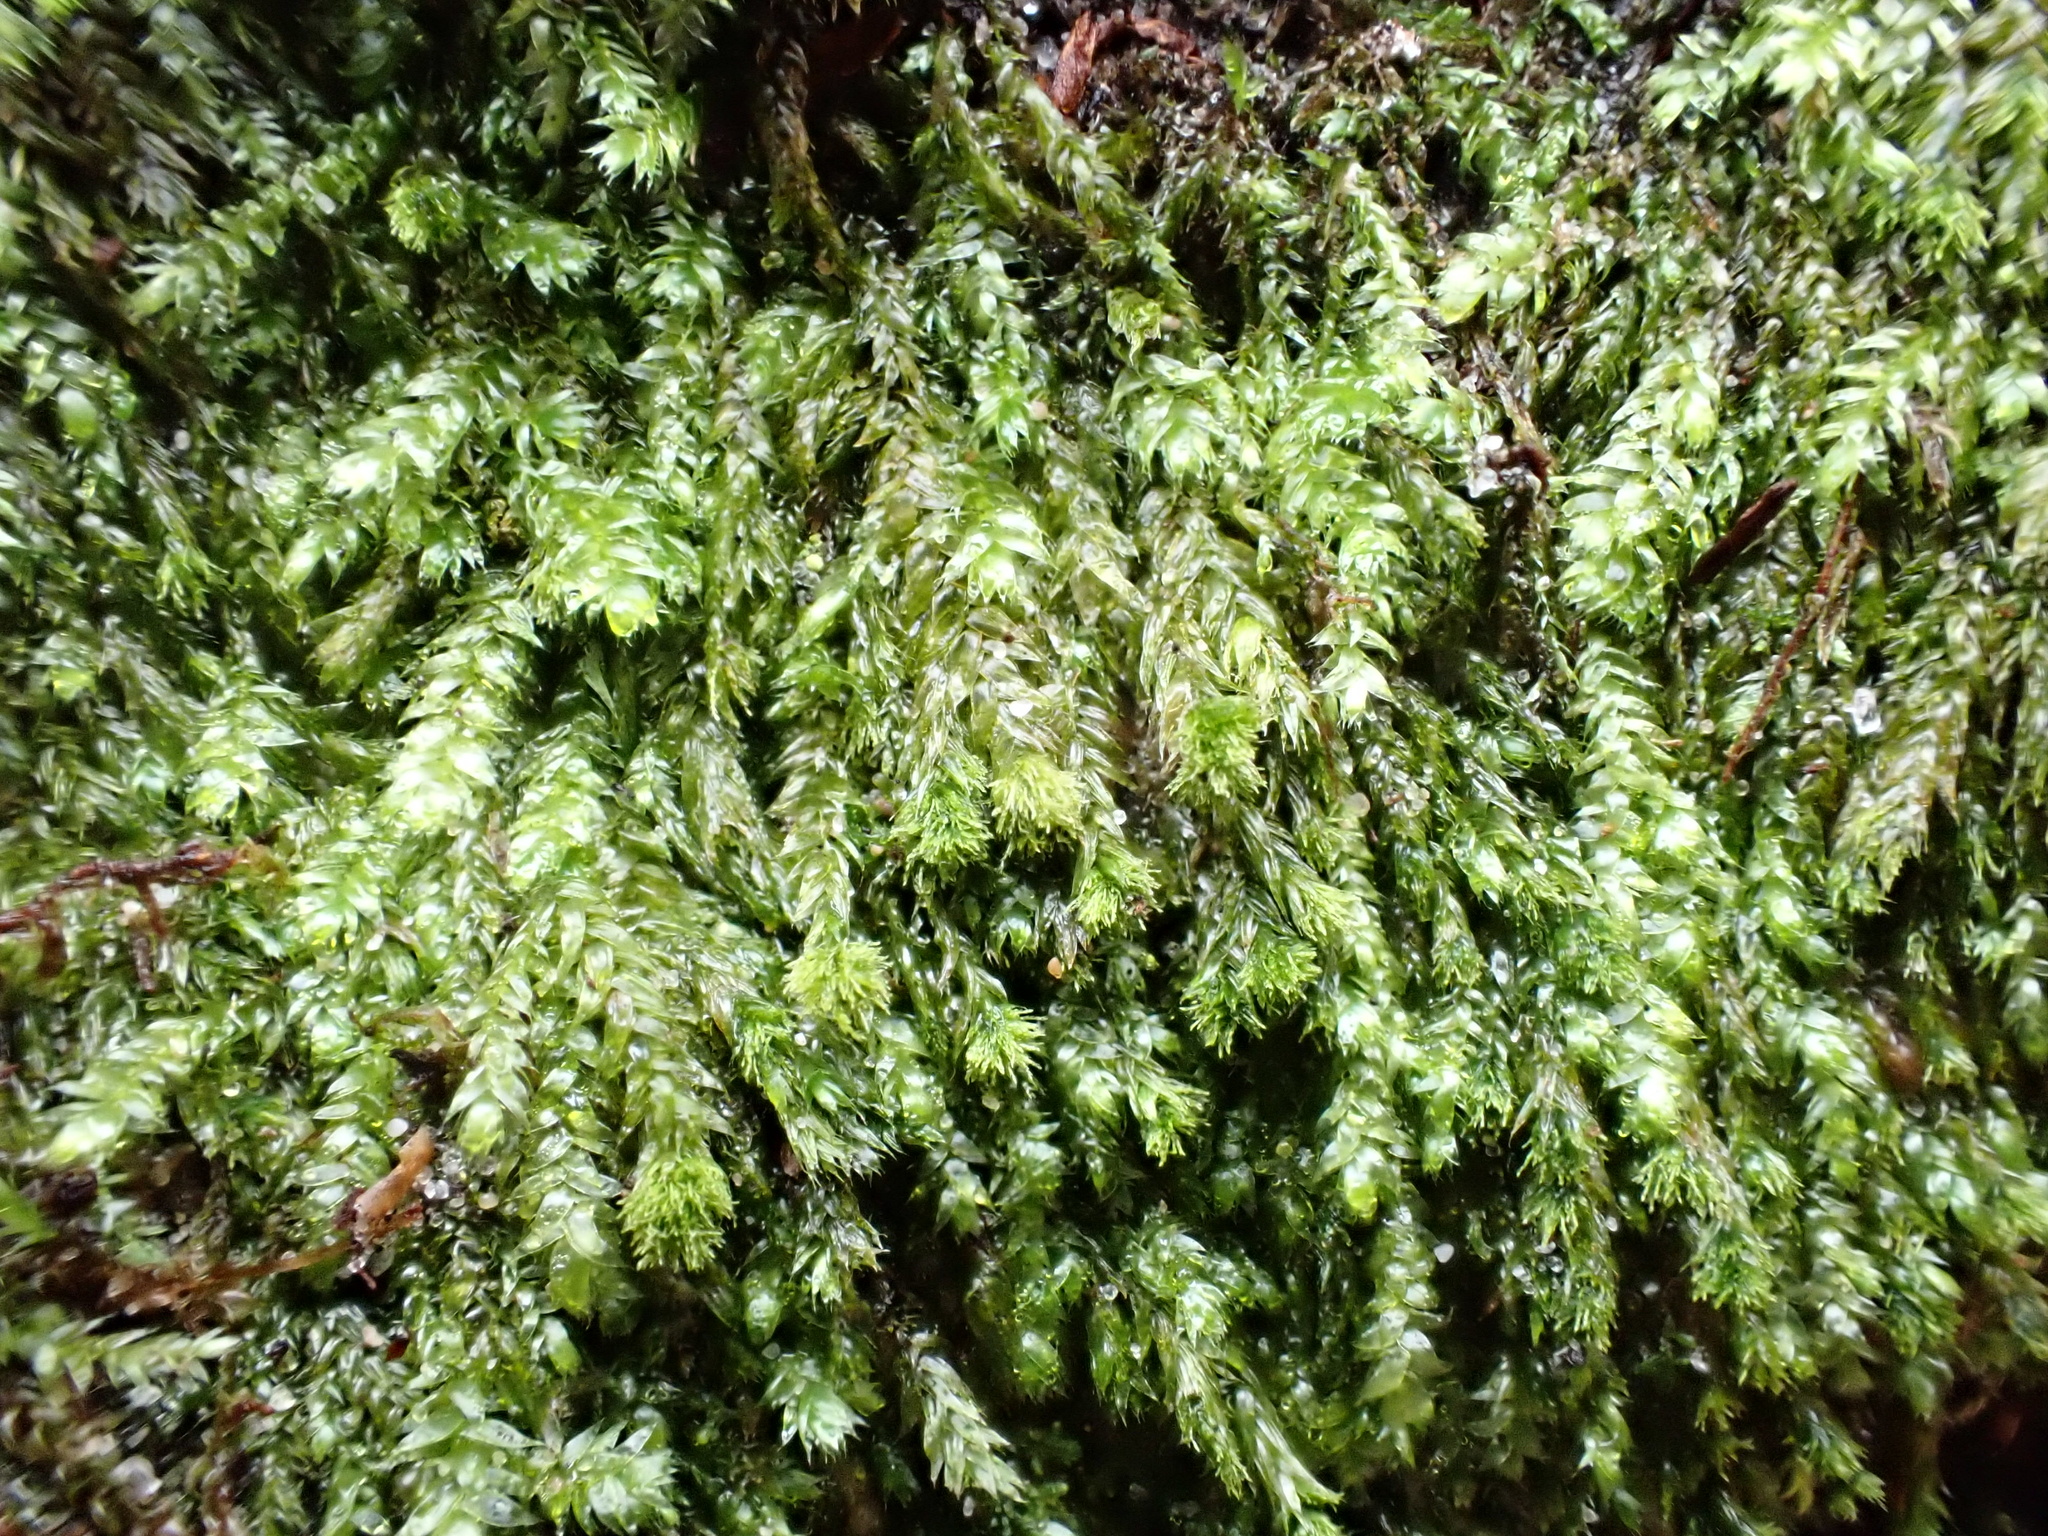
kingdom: Plantae
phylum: Bryophyta
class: Bryopsida
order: Hypnales
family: Plagiotheciaceae
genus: Pseudotaxiphyllum
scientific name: Pseudotaxiphyllum elegans
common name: Elegant silk moss
